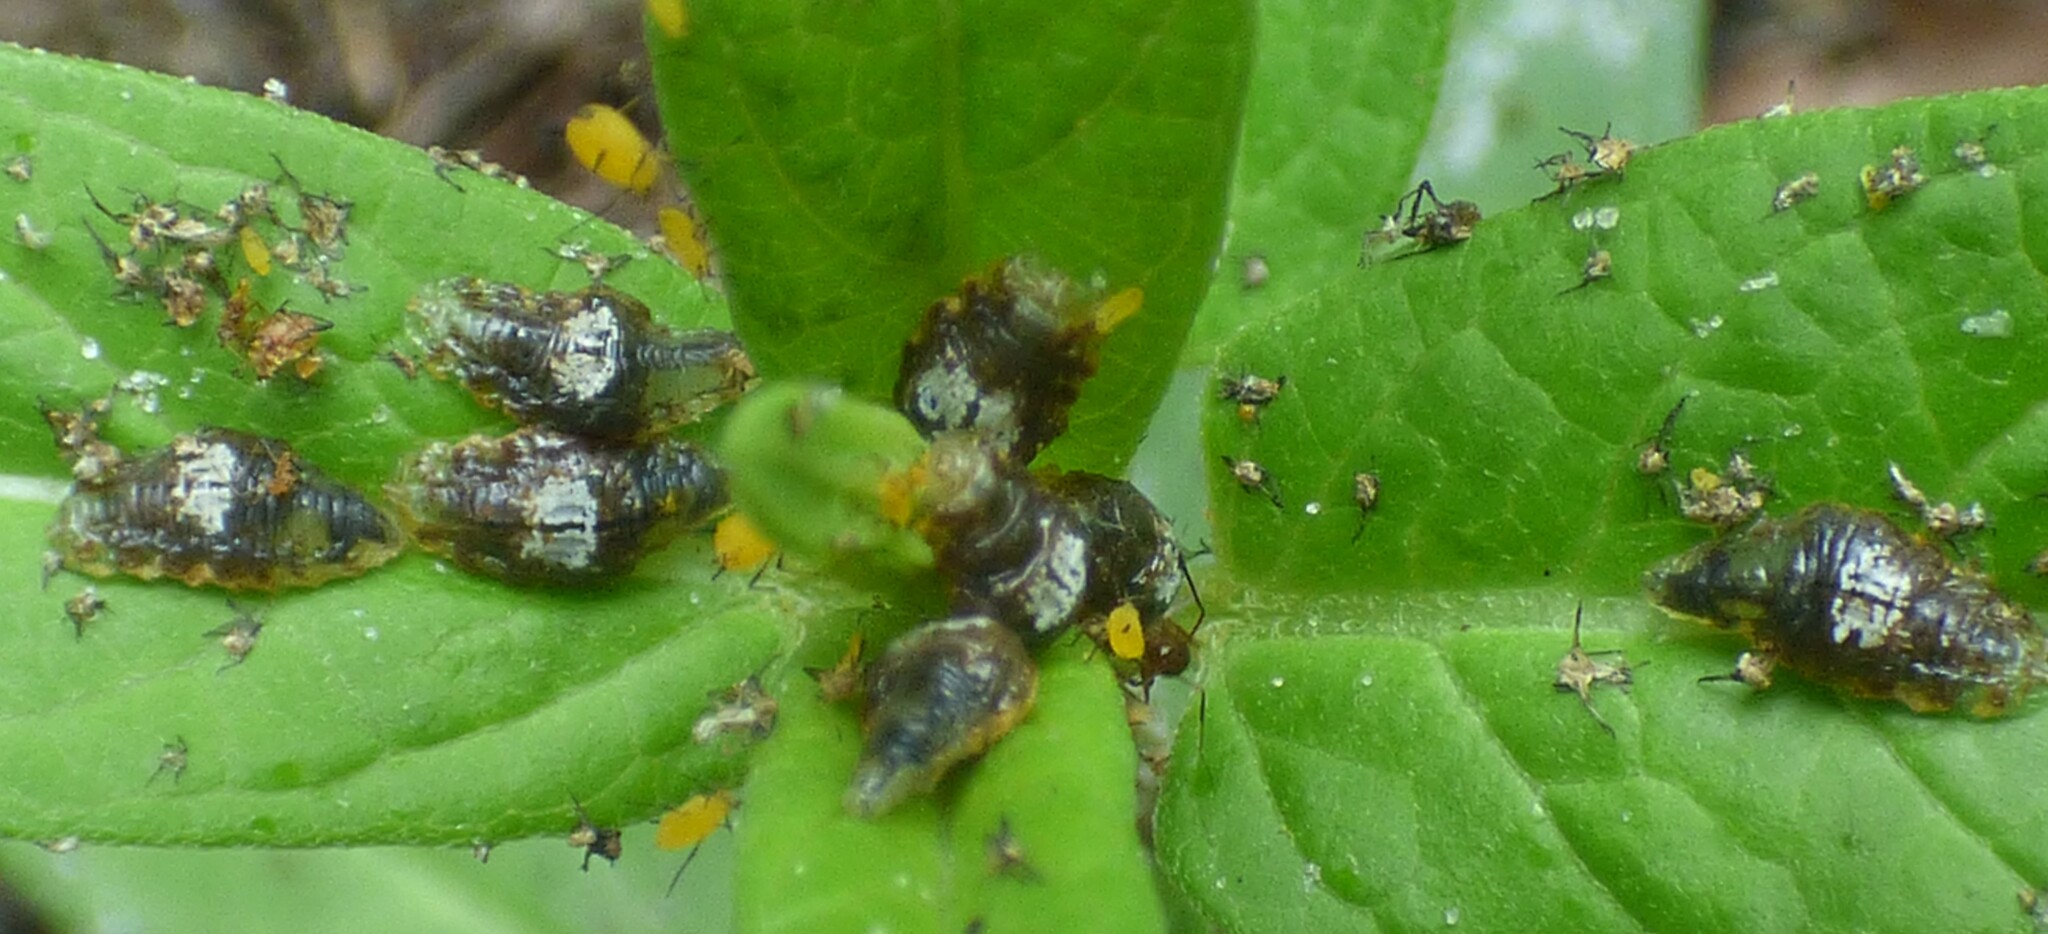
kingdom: Animalia
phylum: Arthropoda
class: Insecta
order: Diptera
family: Syrphidae
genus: Ocyptamus
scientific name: Ocyptamus fuscipennis
